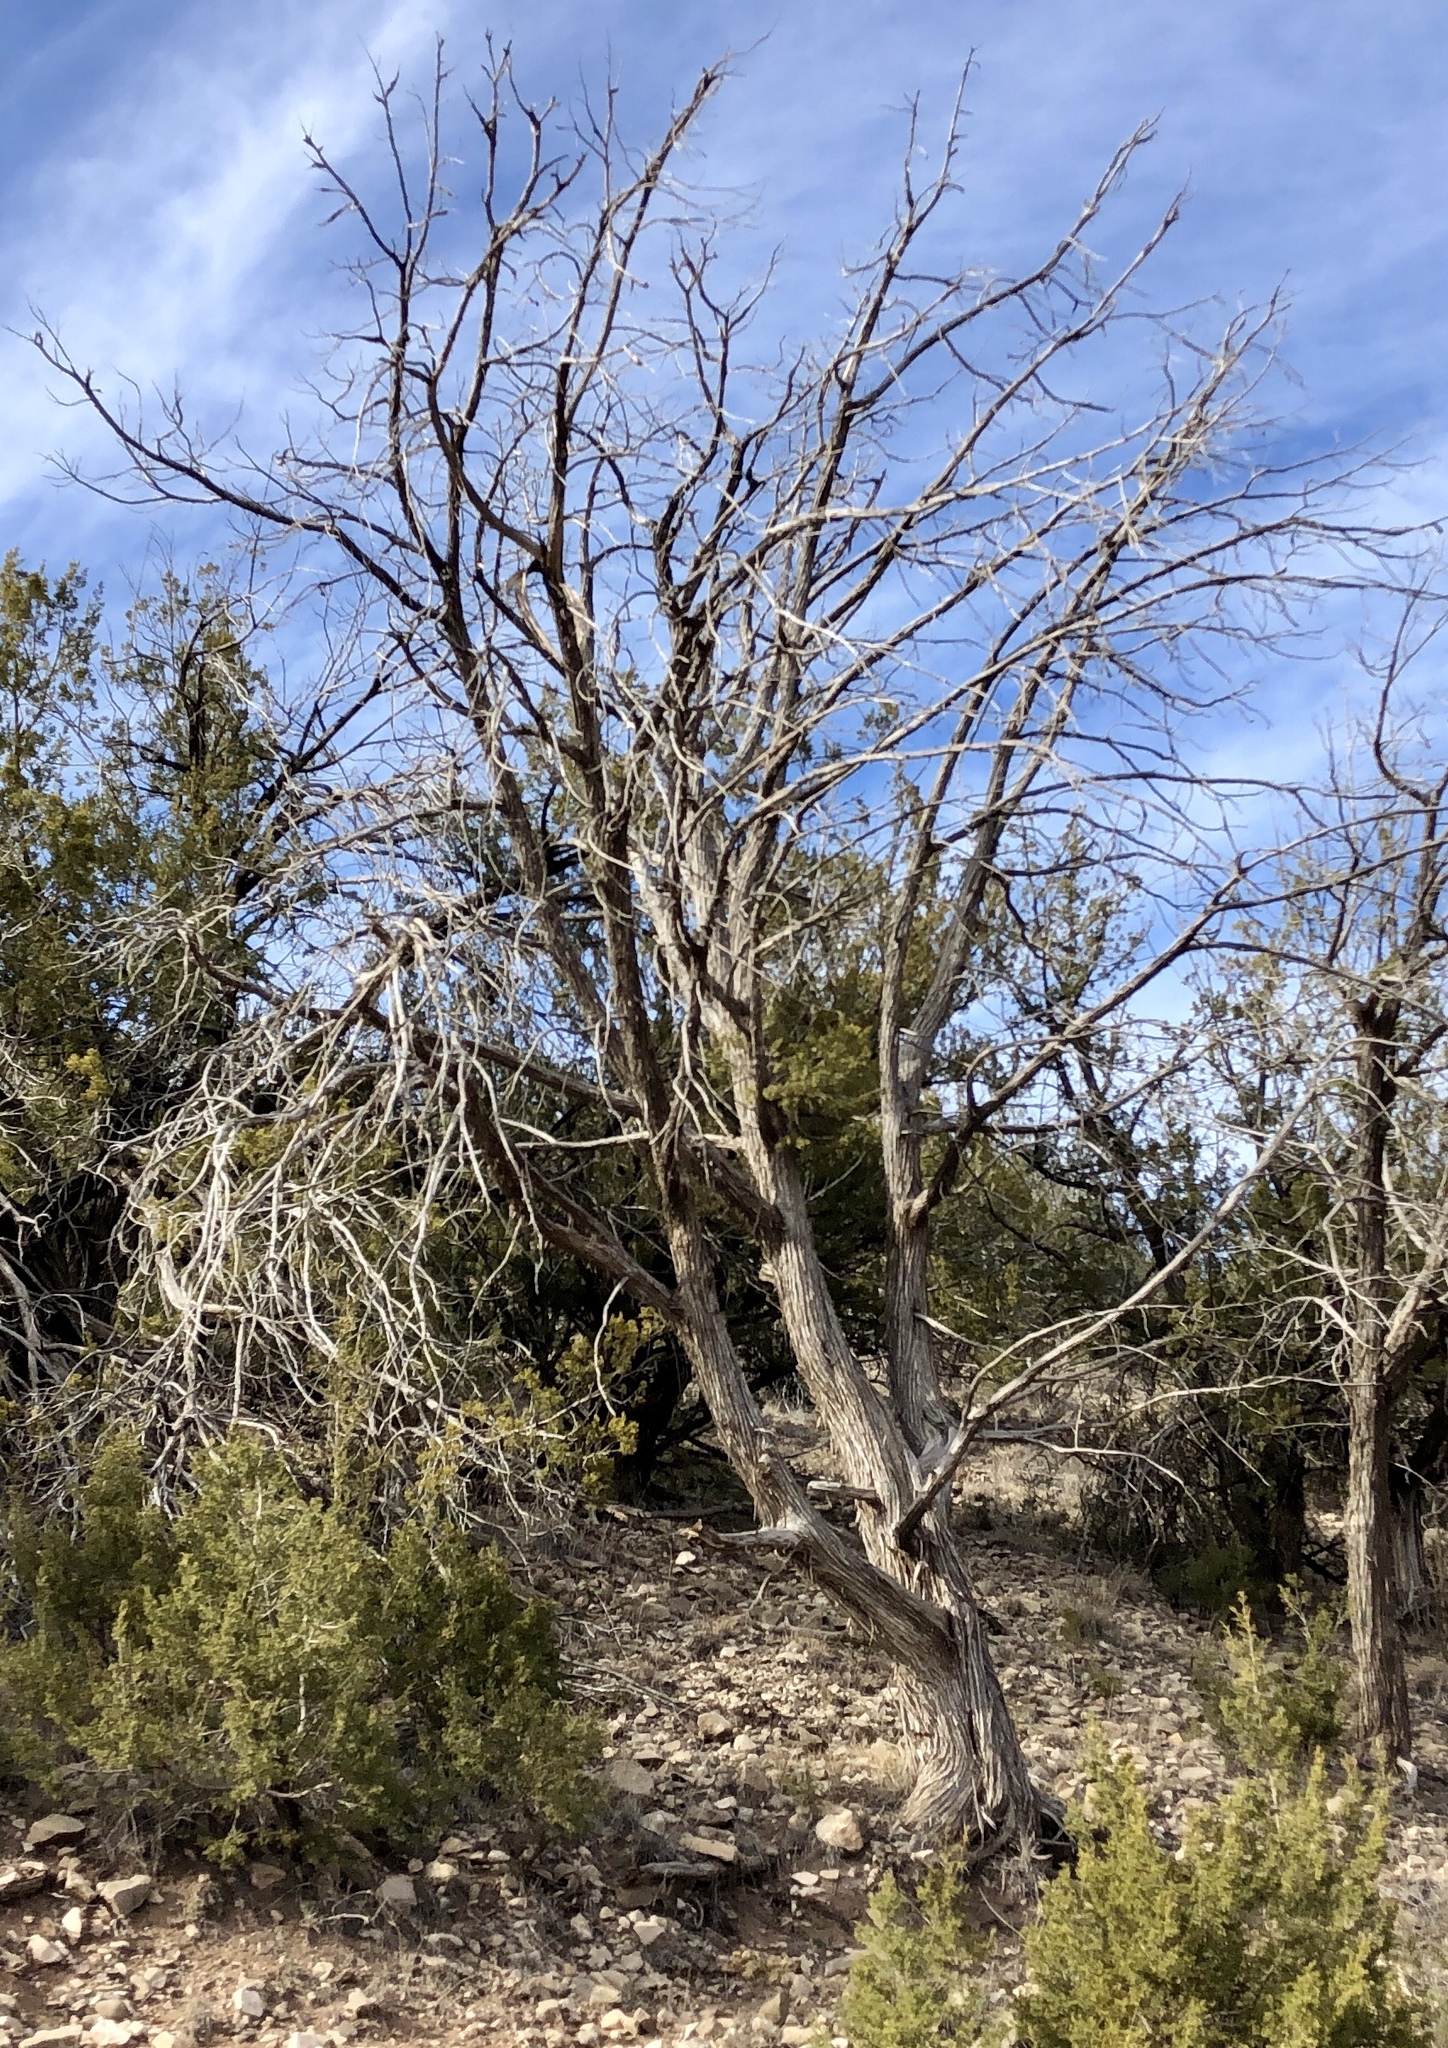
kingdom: Plantae
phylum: Tracheophyta
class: Pinopsida
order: Pinales
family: Cupressaceae
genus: Juniperus
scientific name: Juniperus monosperma
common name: One-seed juniper
